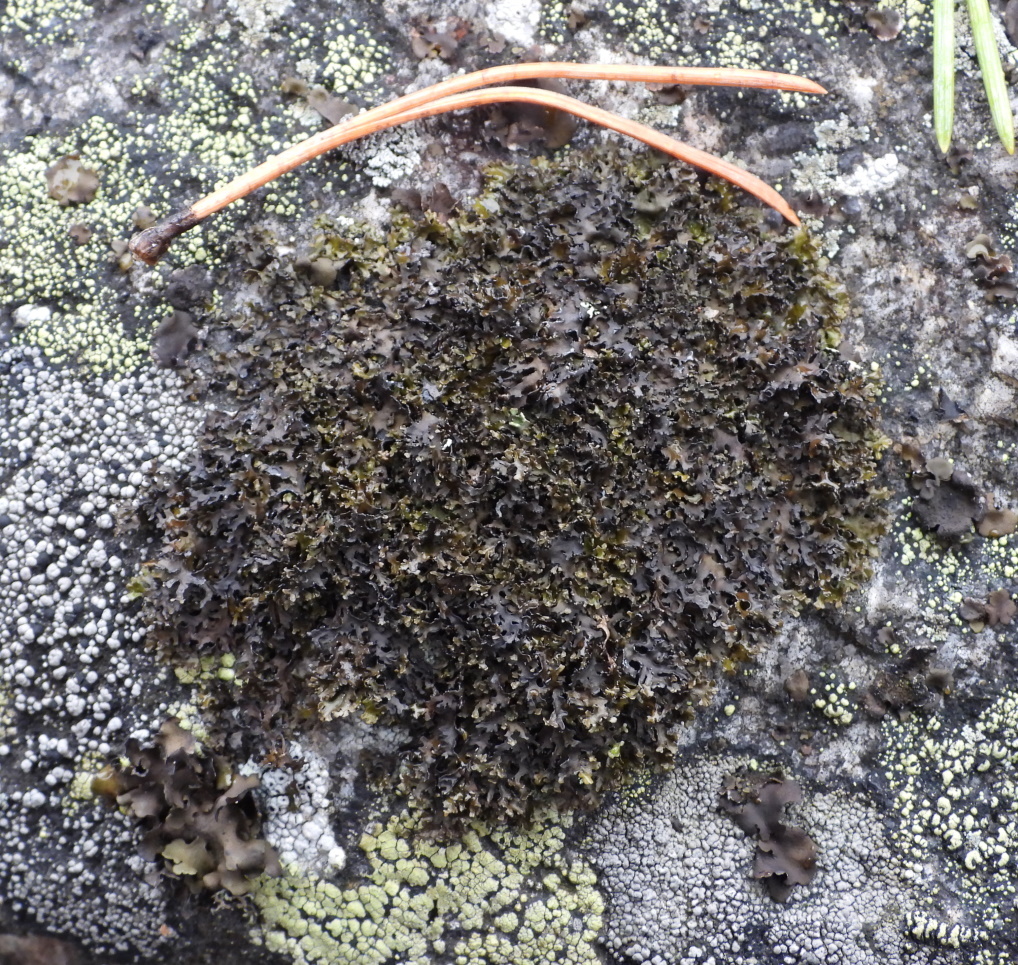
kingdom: Fungi
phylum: Ascomycota
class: Lecanoromycetes
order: Lecanorales
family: Parmeliaceae
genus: Melanelia
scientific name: Melanelia commixta
